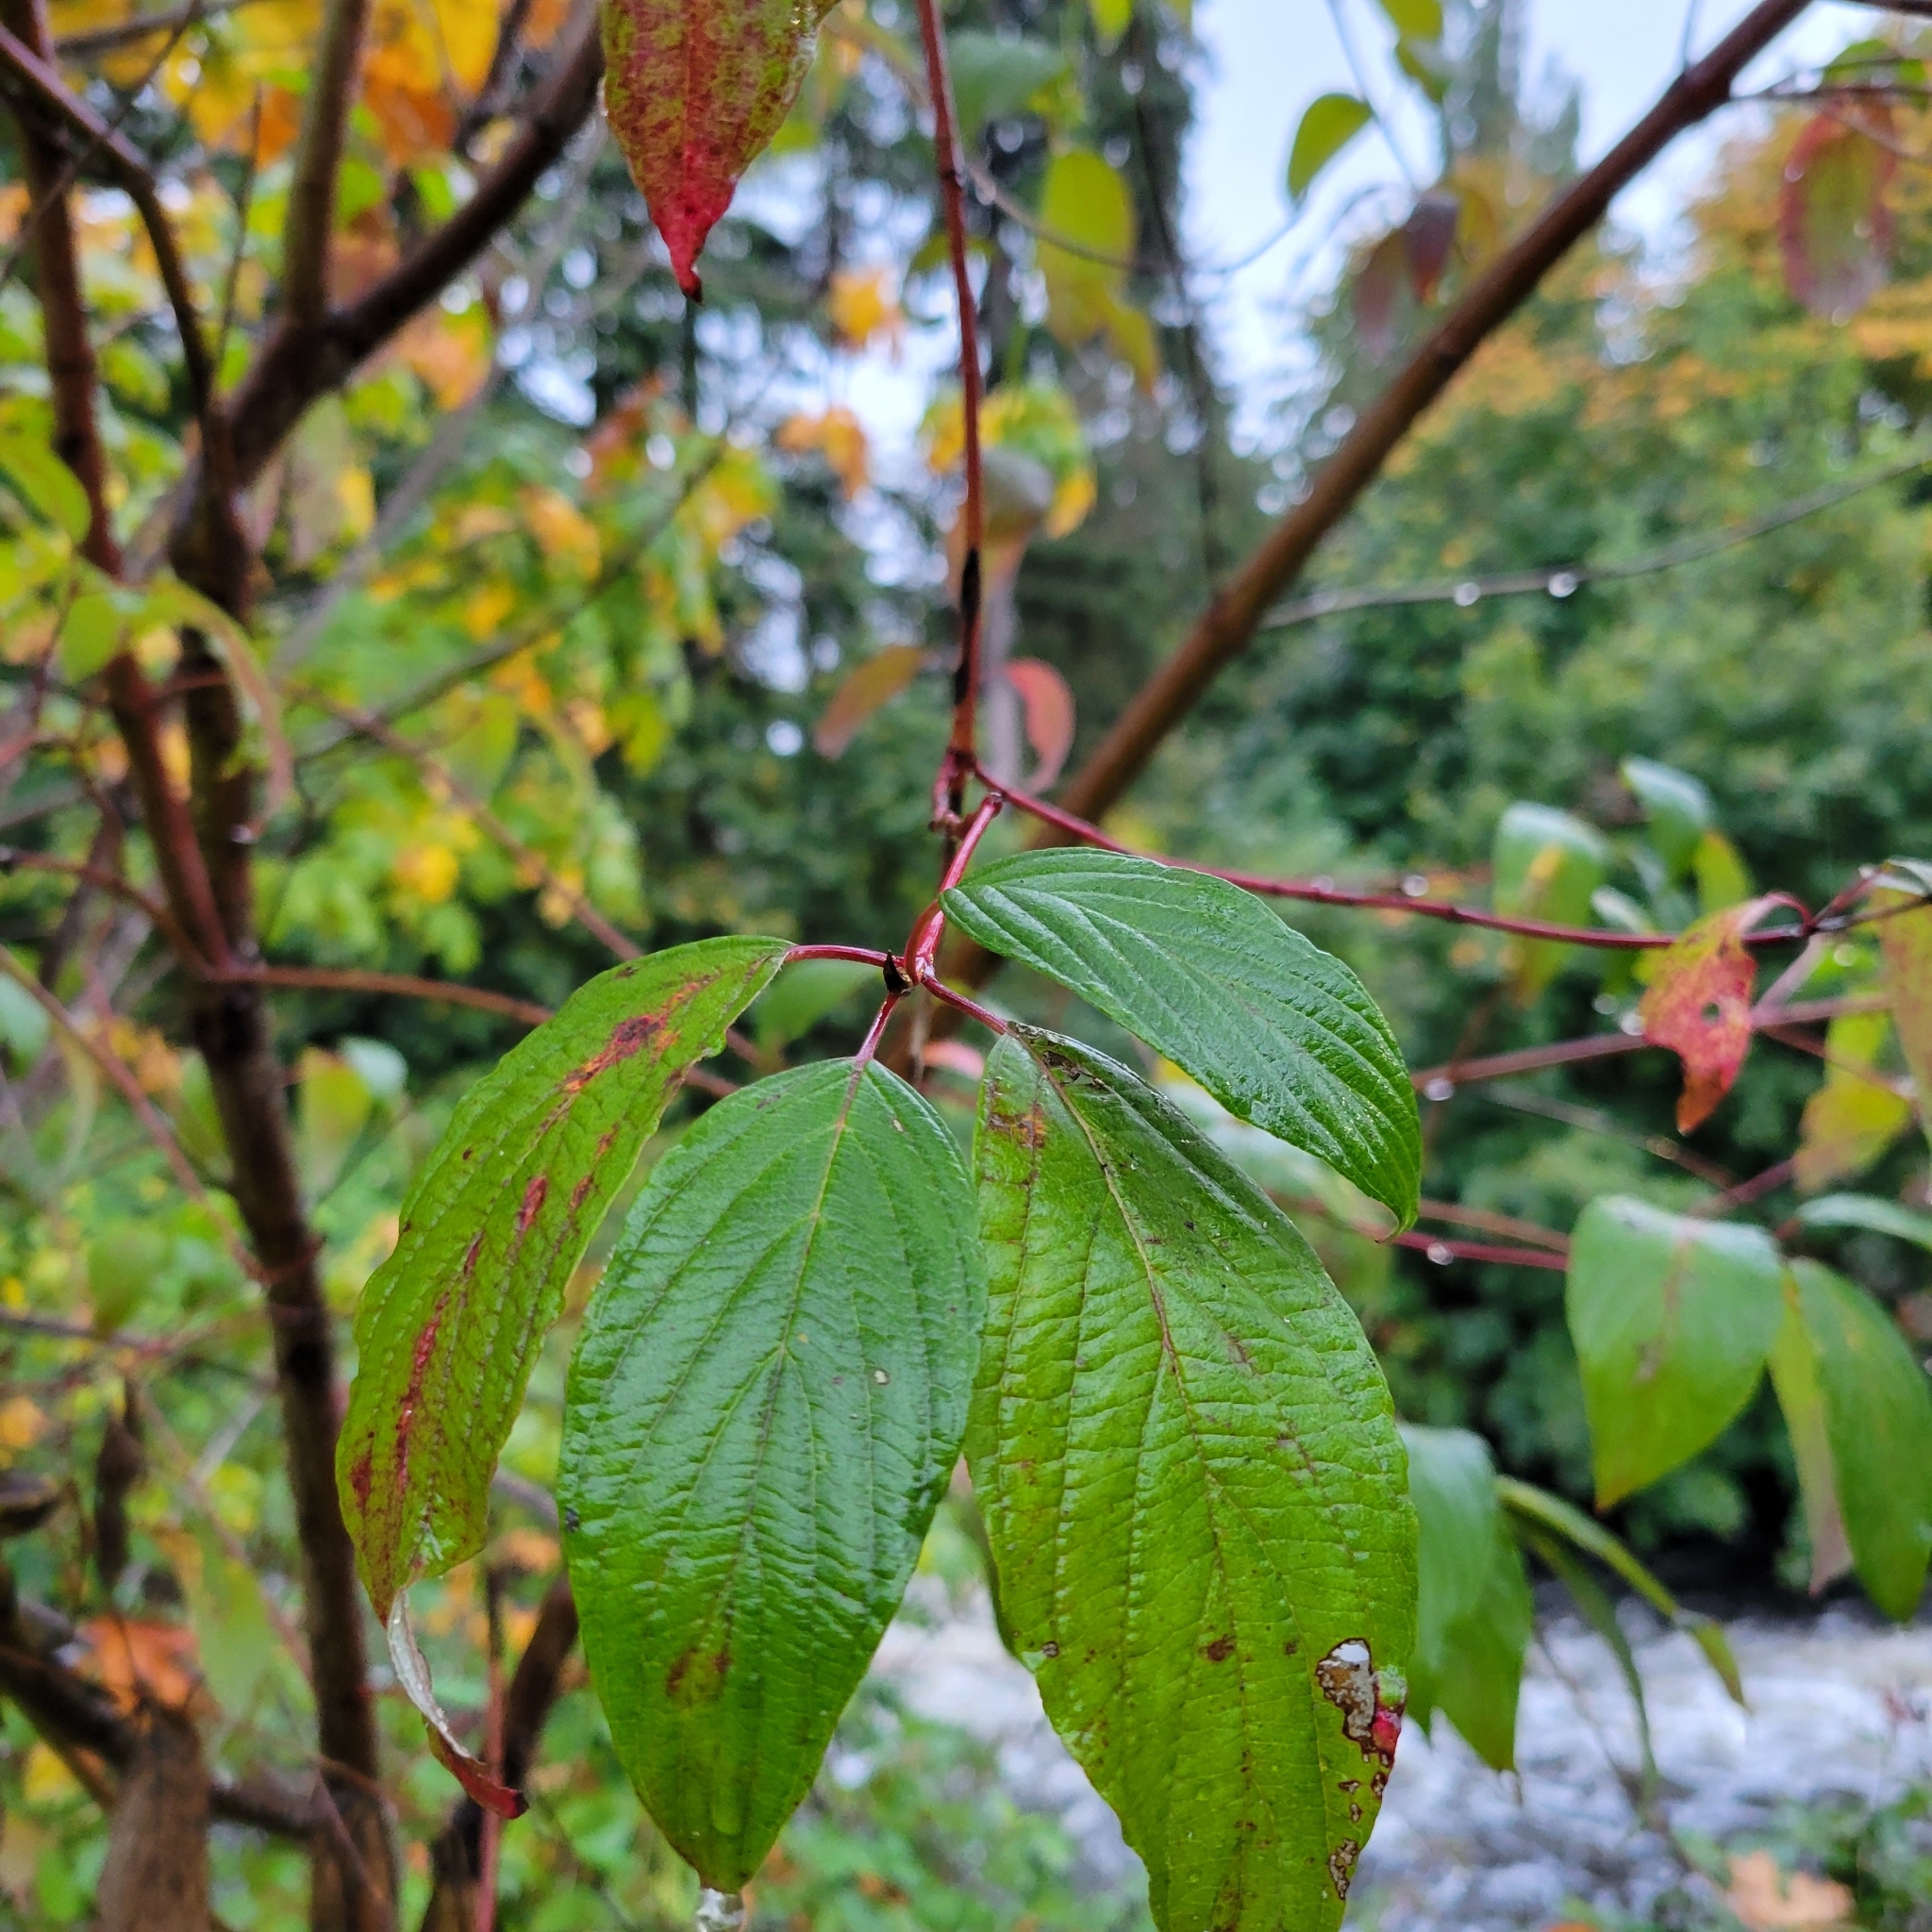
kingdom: Plantae
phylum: Tracheophyta
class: Magnoliopsida
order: Cornales
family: Cornaceae
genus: Cornus
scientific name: Cornus sericea
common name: Red-osier dogwood
